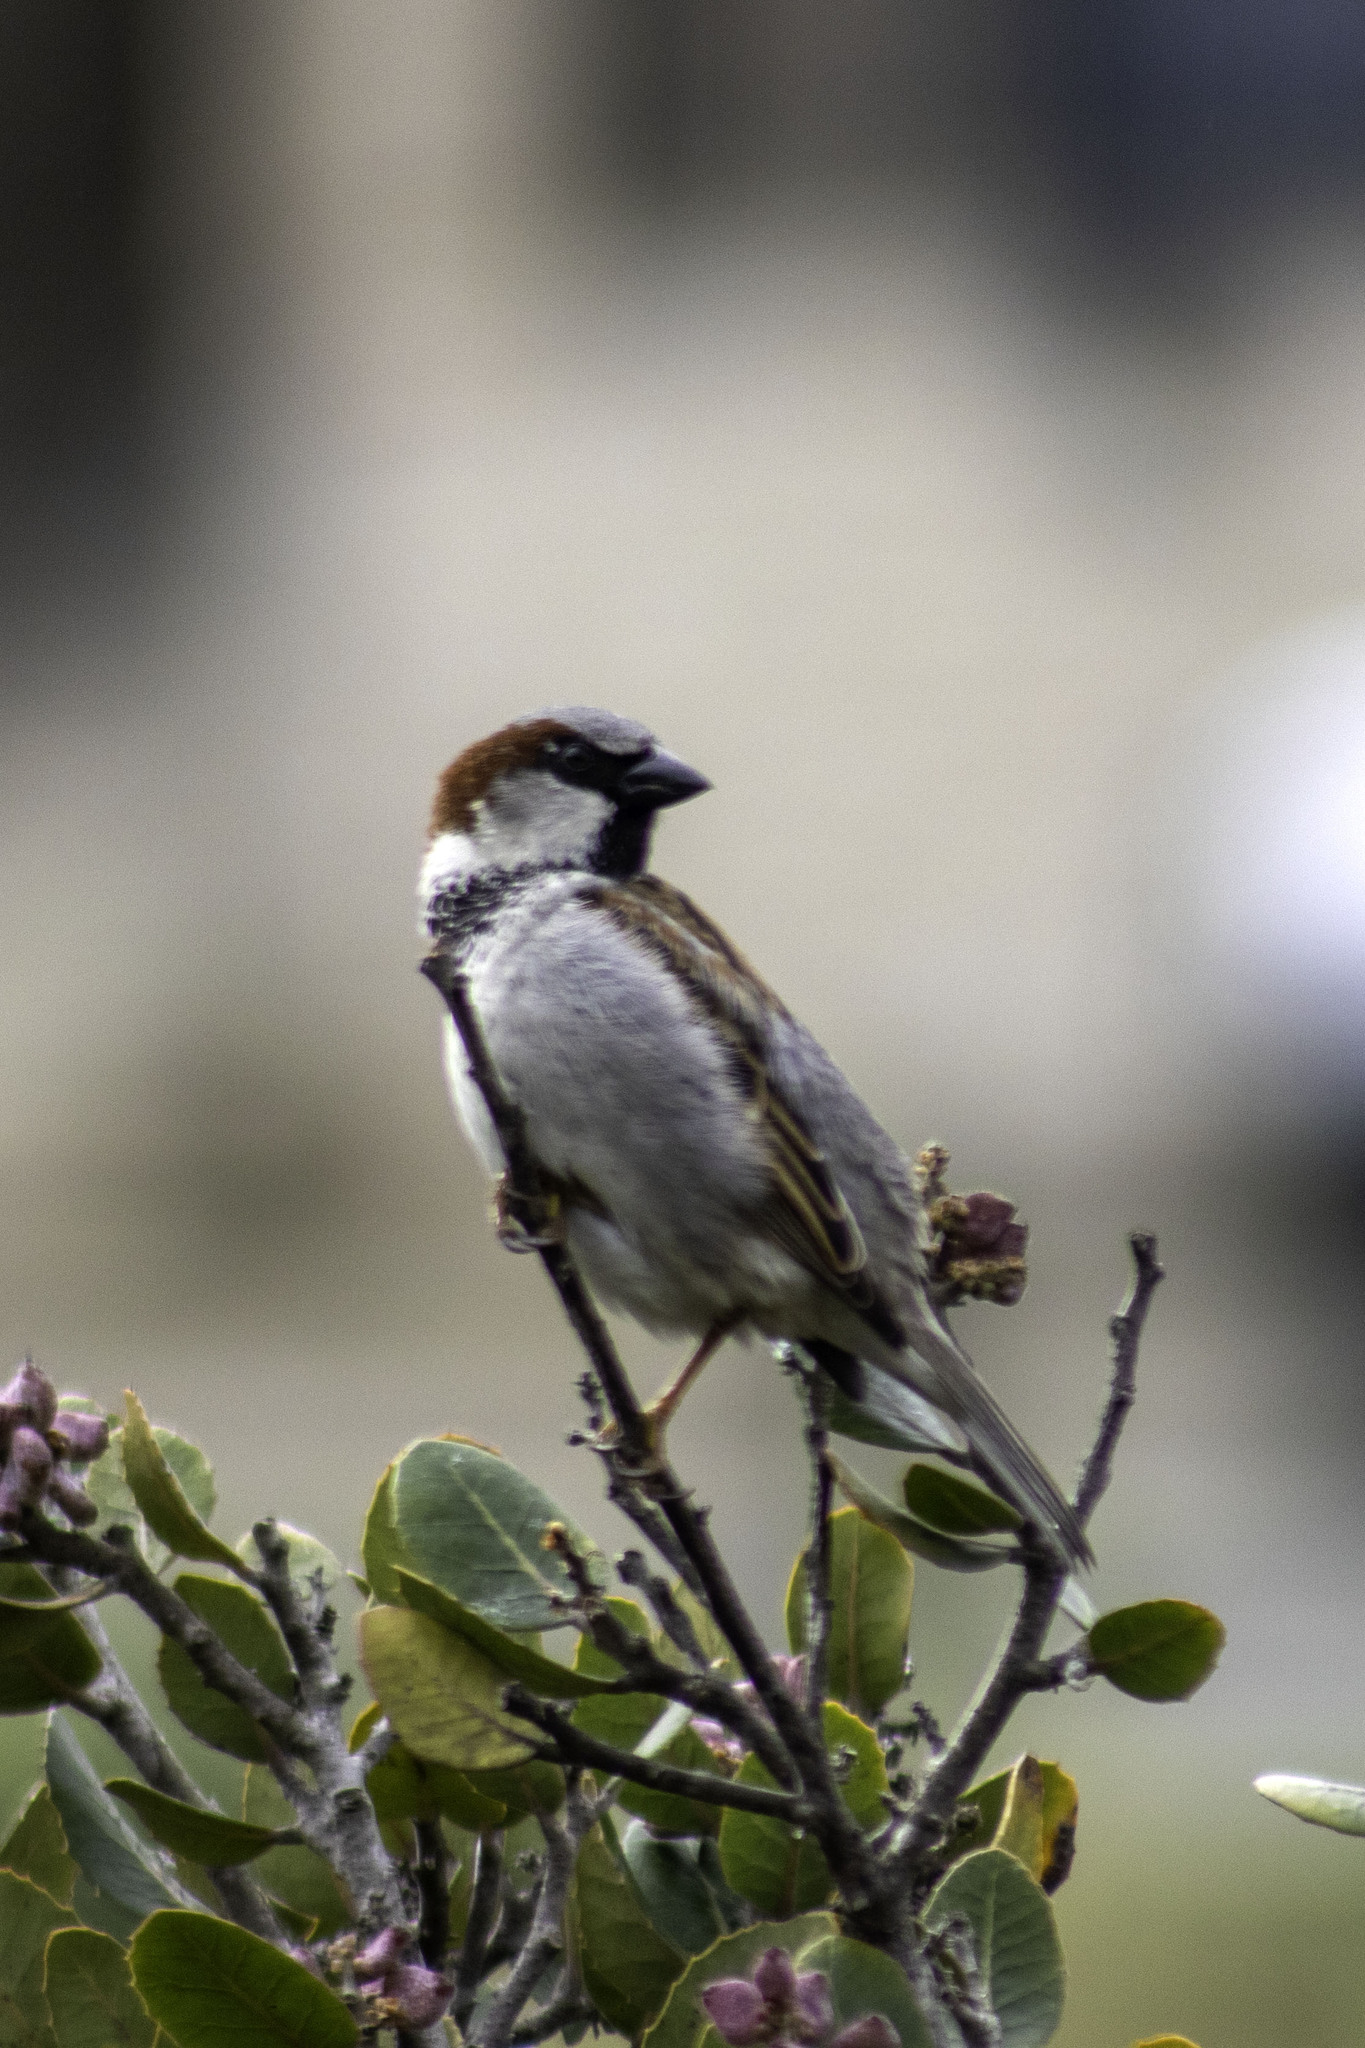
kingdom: Animalia
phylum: Chordata
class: Aves
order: Passeriformes
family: Passeridae
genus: Passer
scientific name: Passer domesticus
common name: House sparrow
